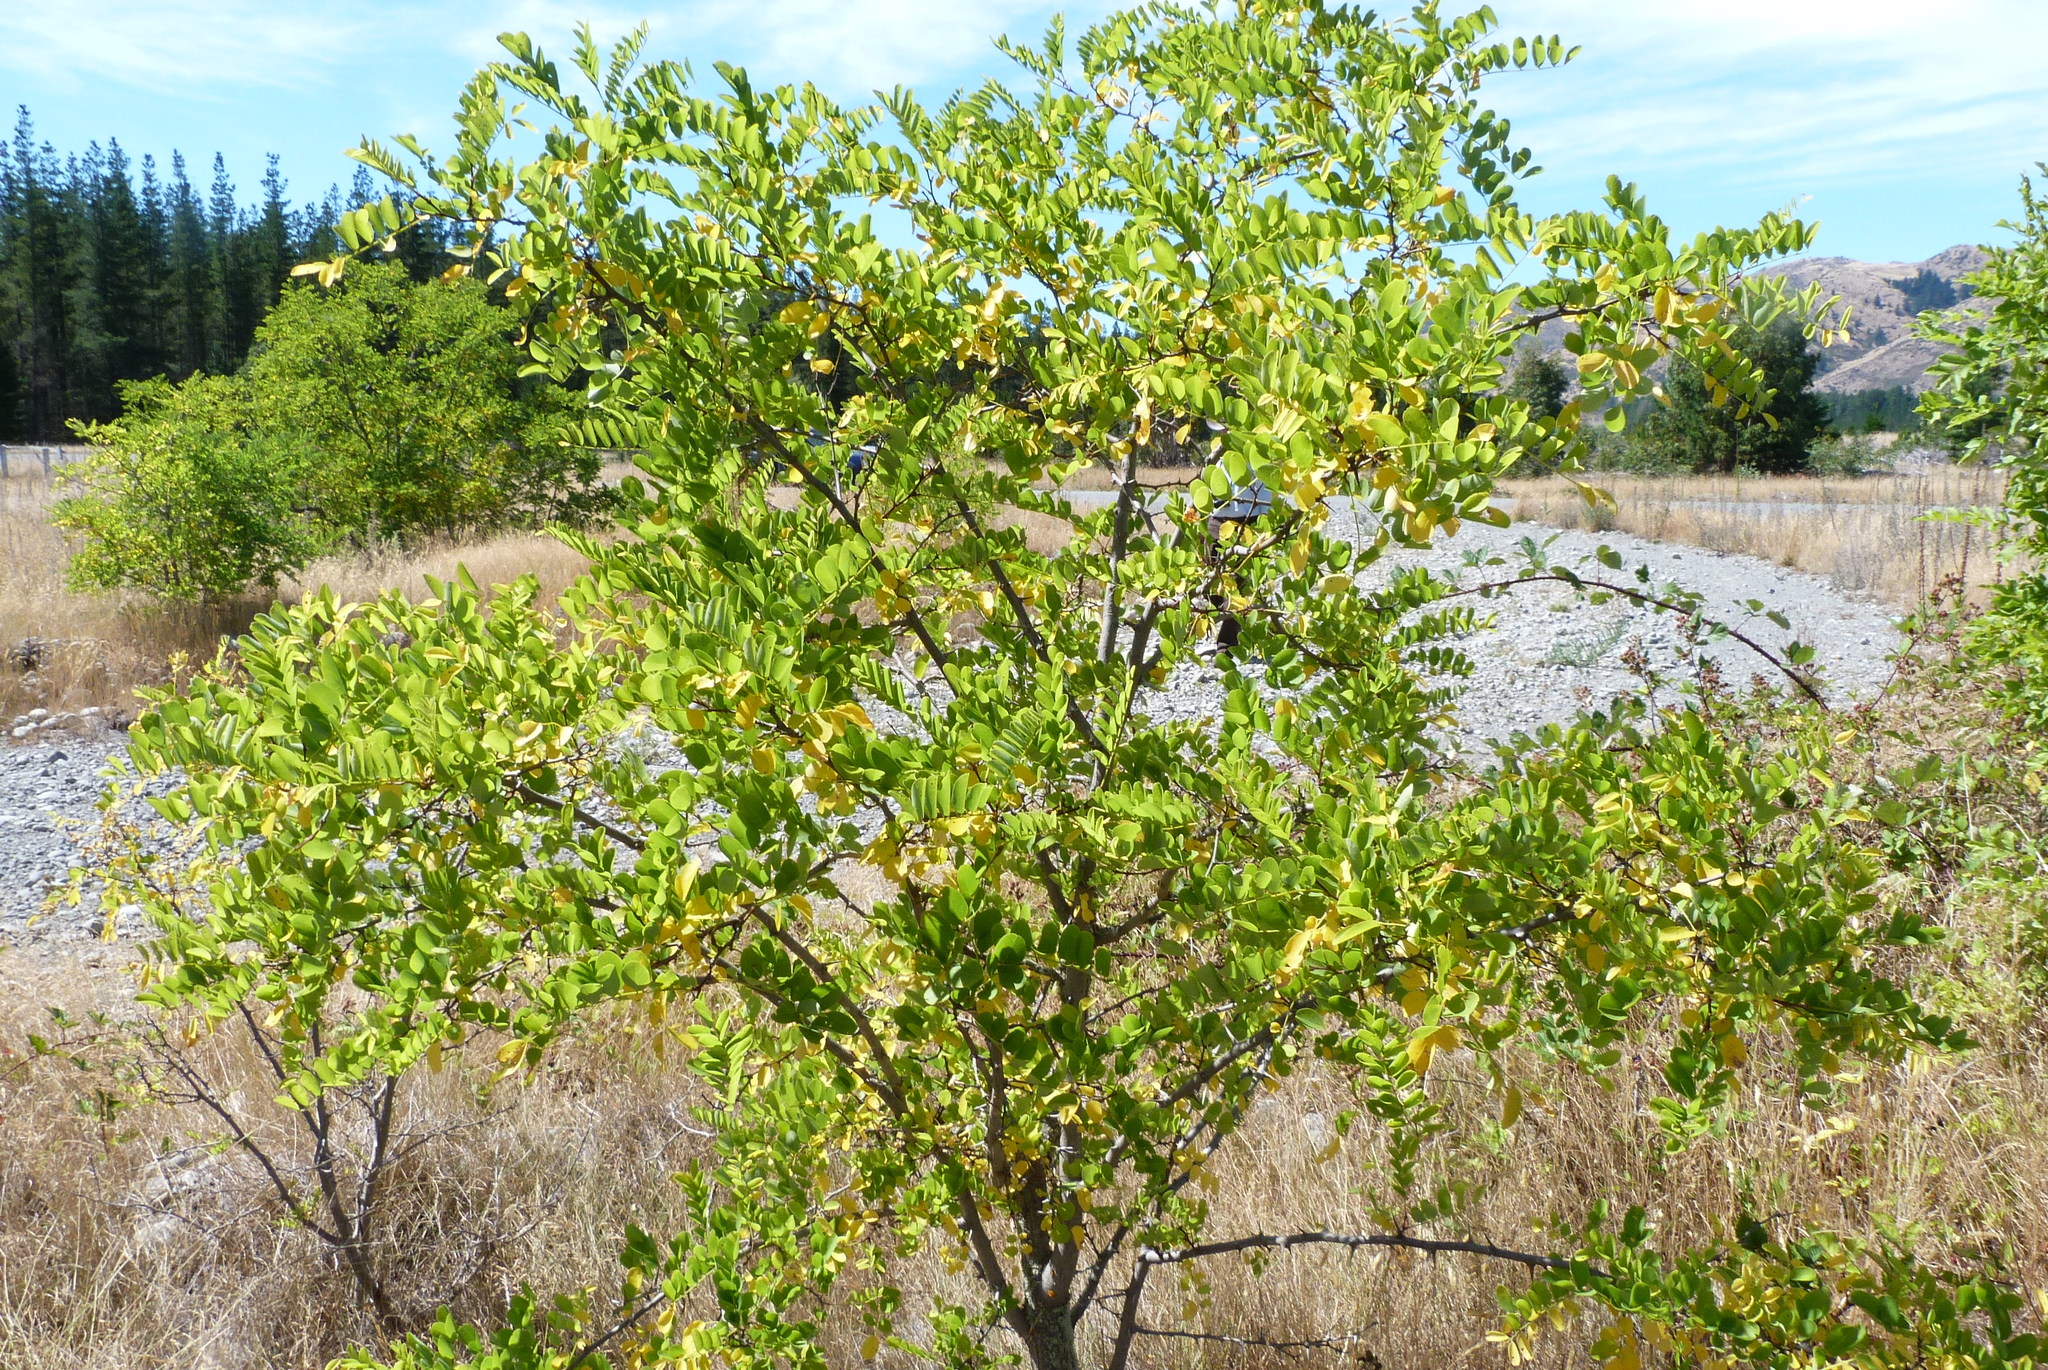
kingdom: Plantae
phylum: Tracheophyta
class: Magnoliopsida
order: Fabales
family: Fabaceae
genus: Robinia
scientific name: Robinia pseudoacacia
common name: Black locust
